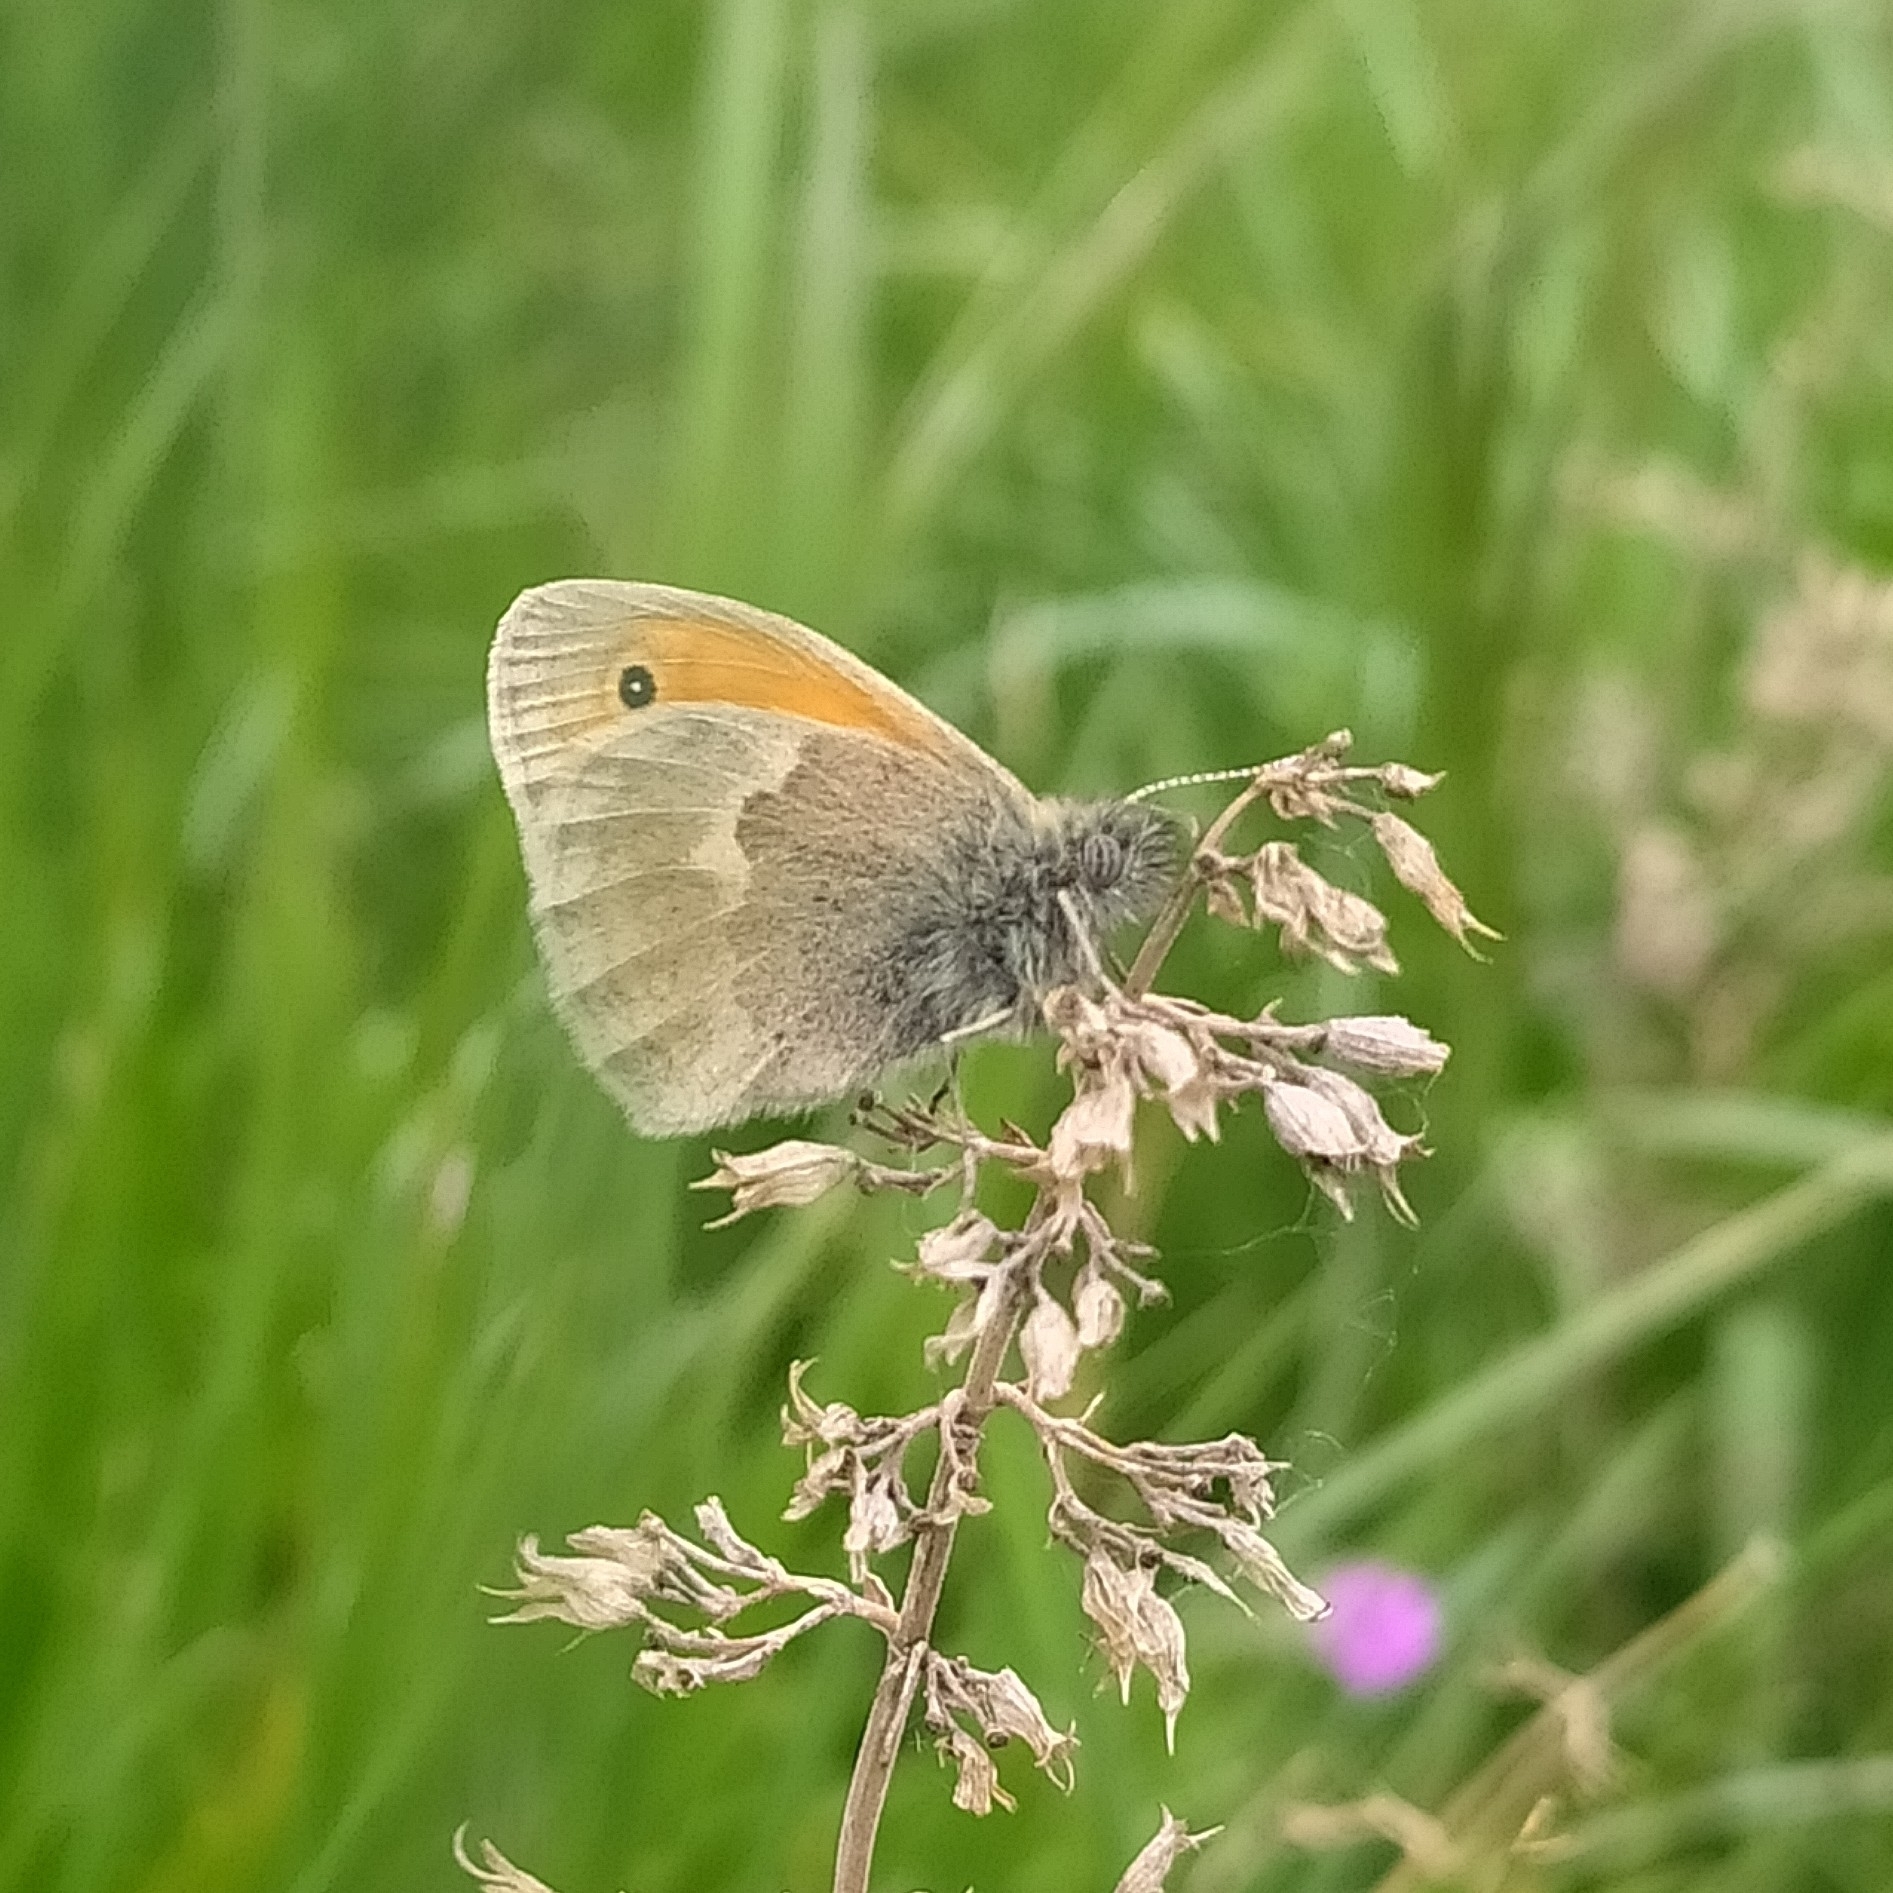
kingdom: Animalia
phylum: Arthropoda
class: Insecta
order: Lepidoptera
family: Nymphalidae
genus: Coenonympha
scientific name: Coenonympha pamphilus
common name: Small heath
